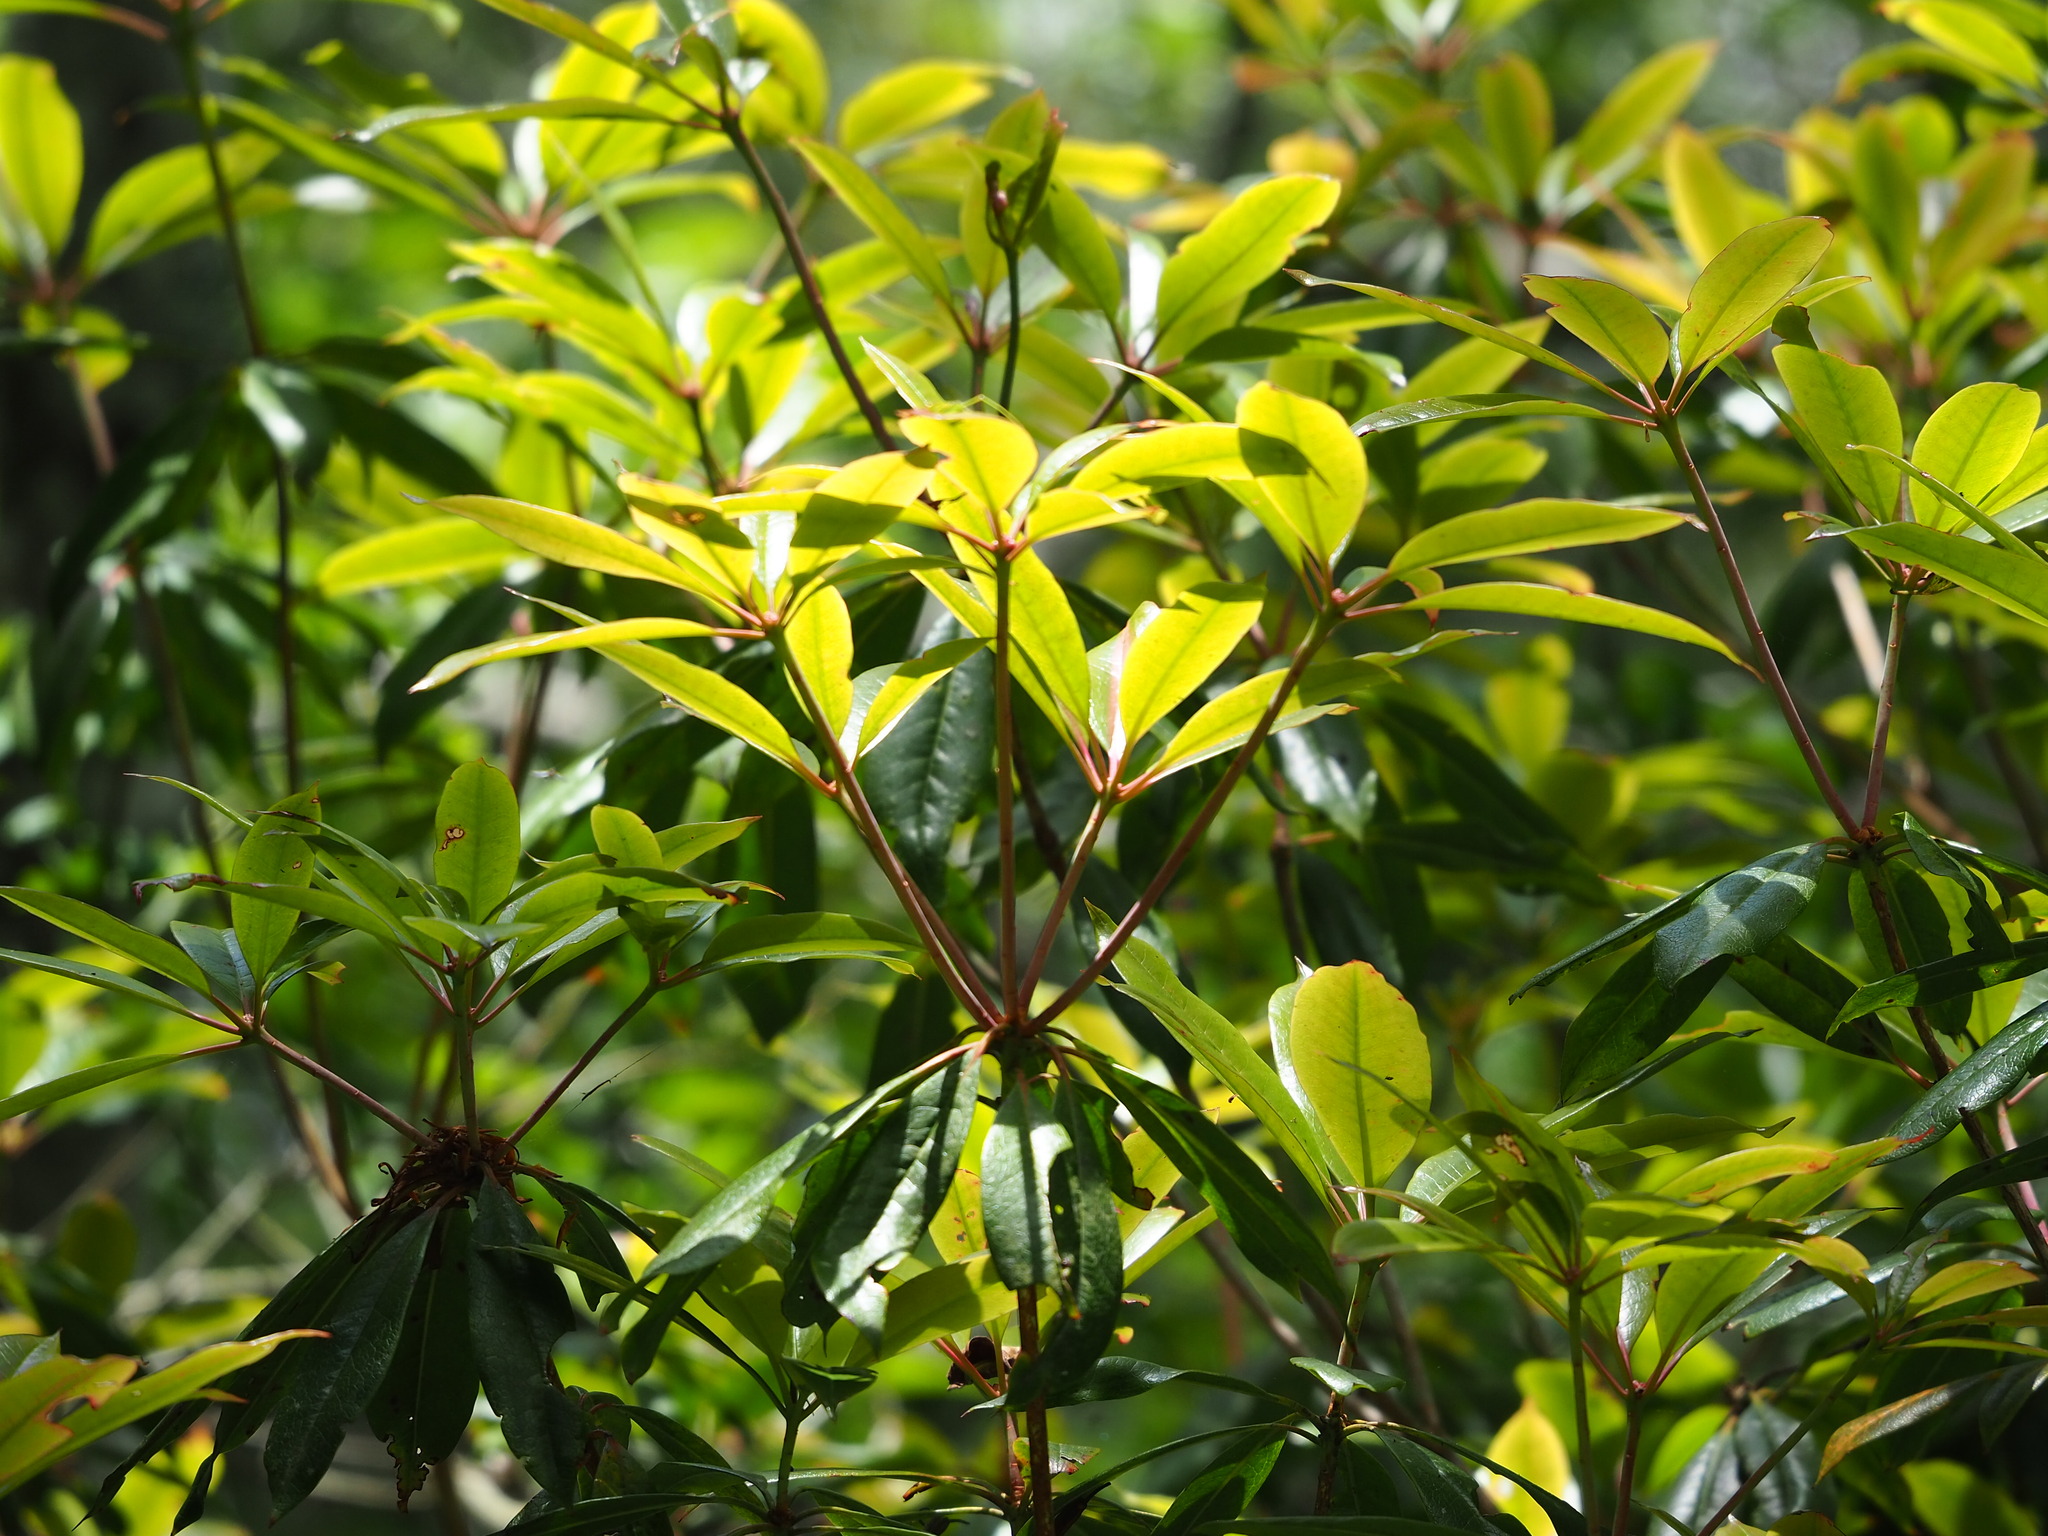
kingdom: Plantae
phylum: Tracheophyta
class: Magnoliopsida
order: Ericales
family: Ericaceae
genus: Rhododendron
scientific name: Rhododendron latoucheae
